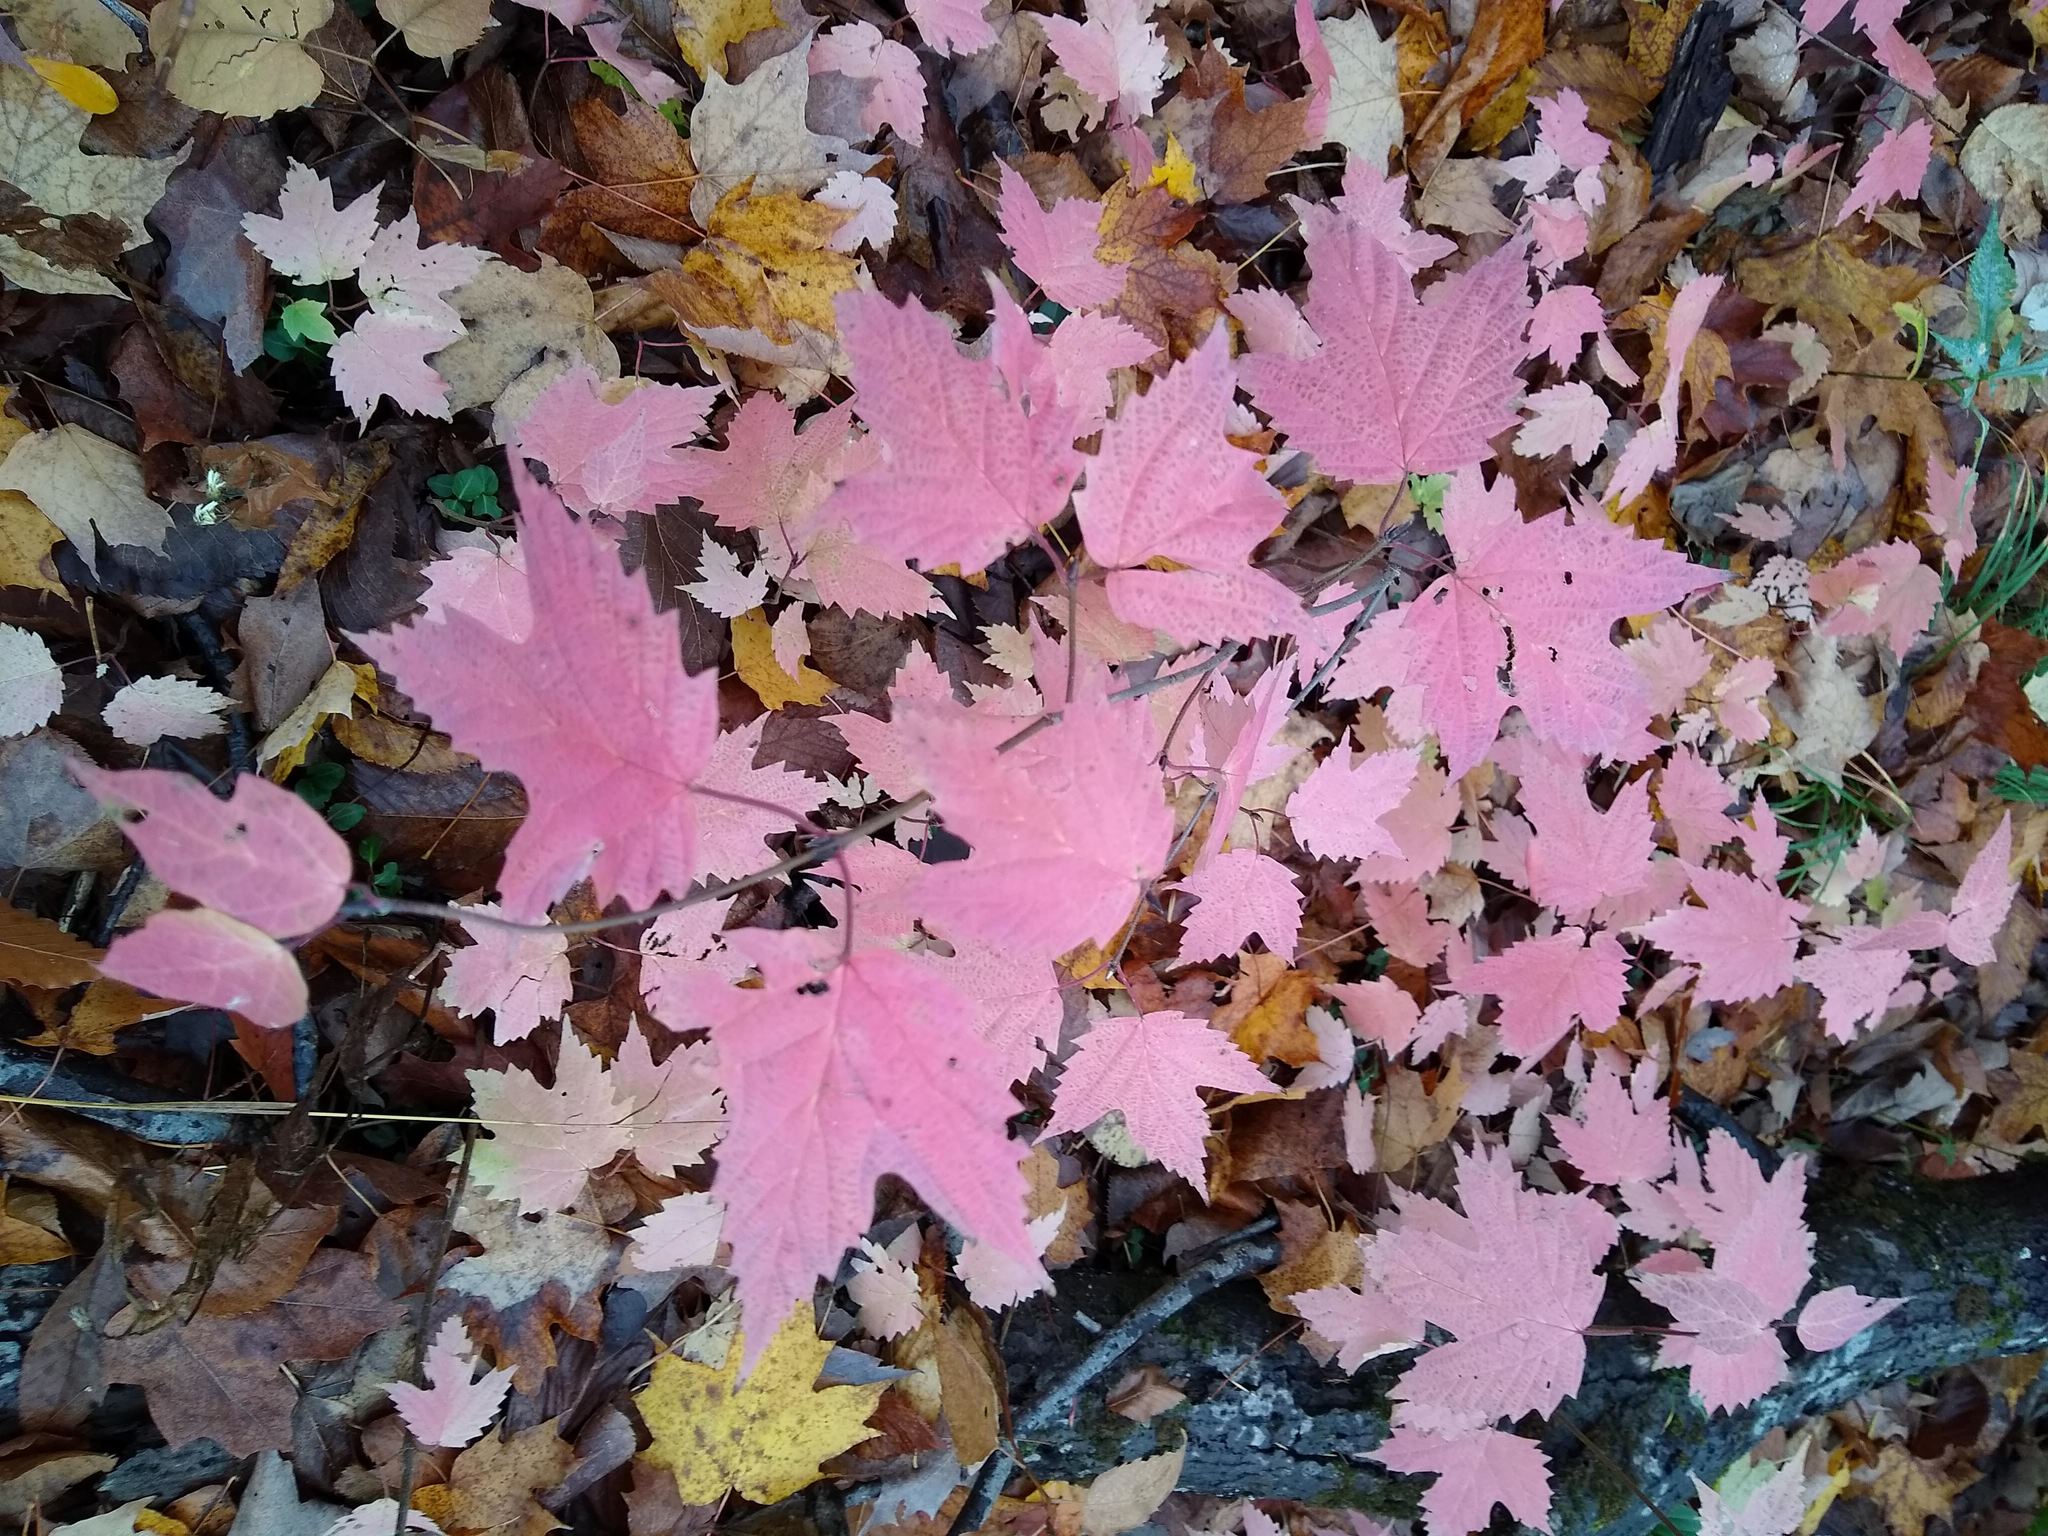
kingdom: Plantae
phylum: Tracheophyta
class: Magnoliopsida
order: Dipsacales
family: Viburnaceae
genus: Viburnum
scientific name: Viburnum acerifolium
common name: Dockmackie
